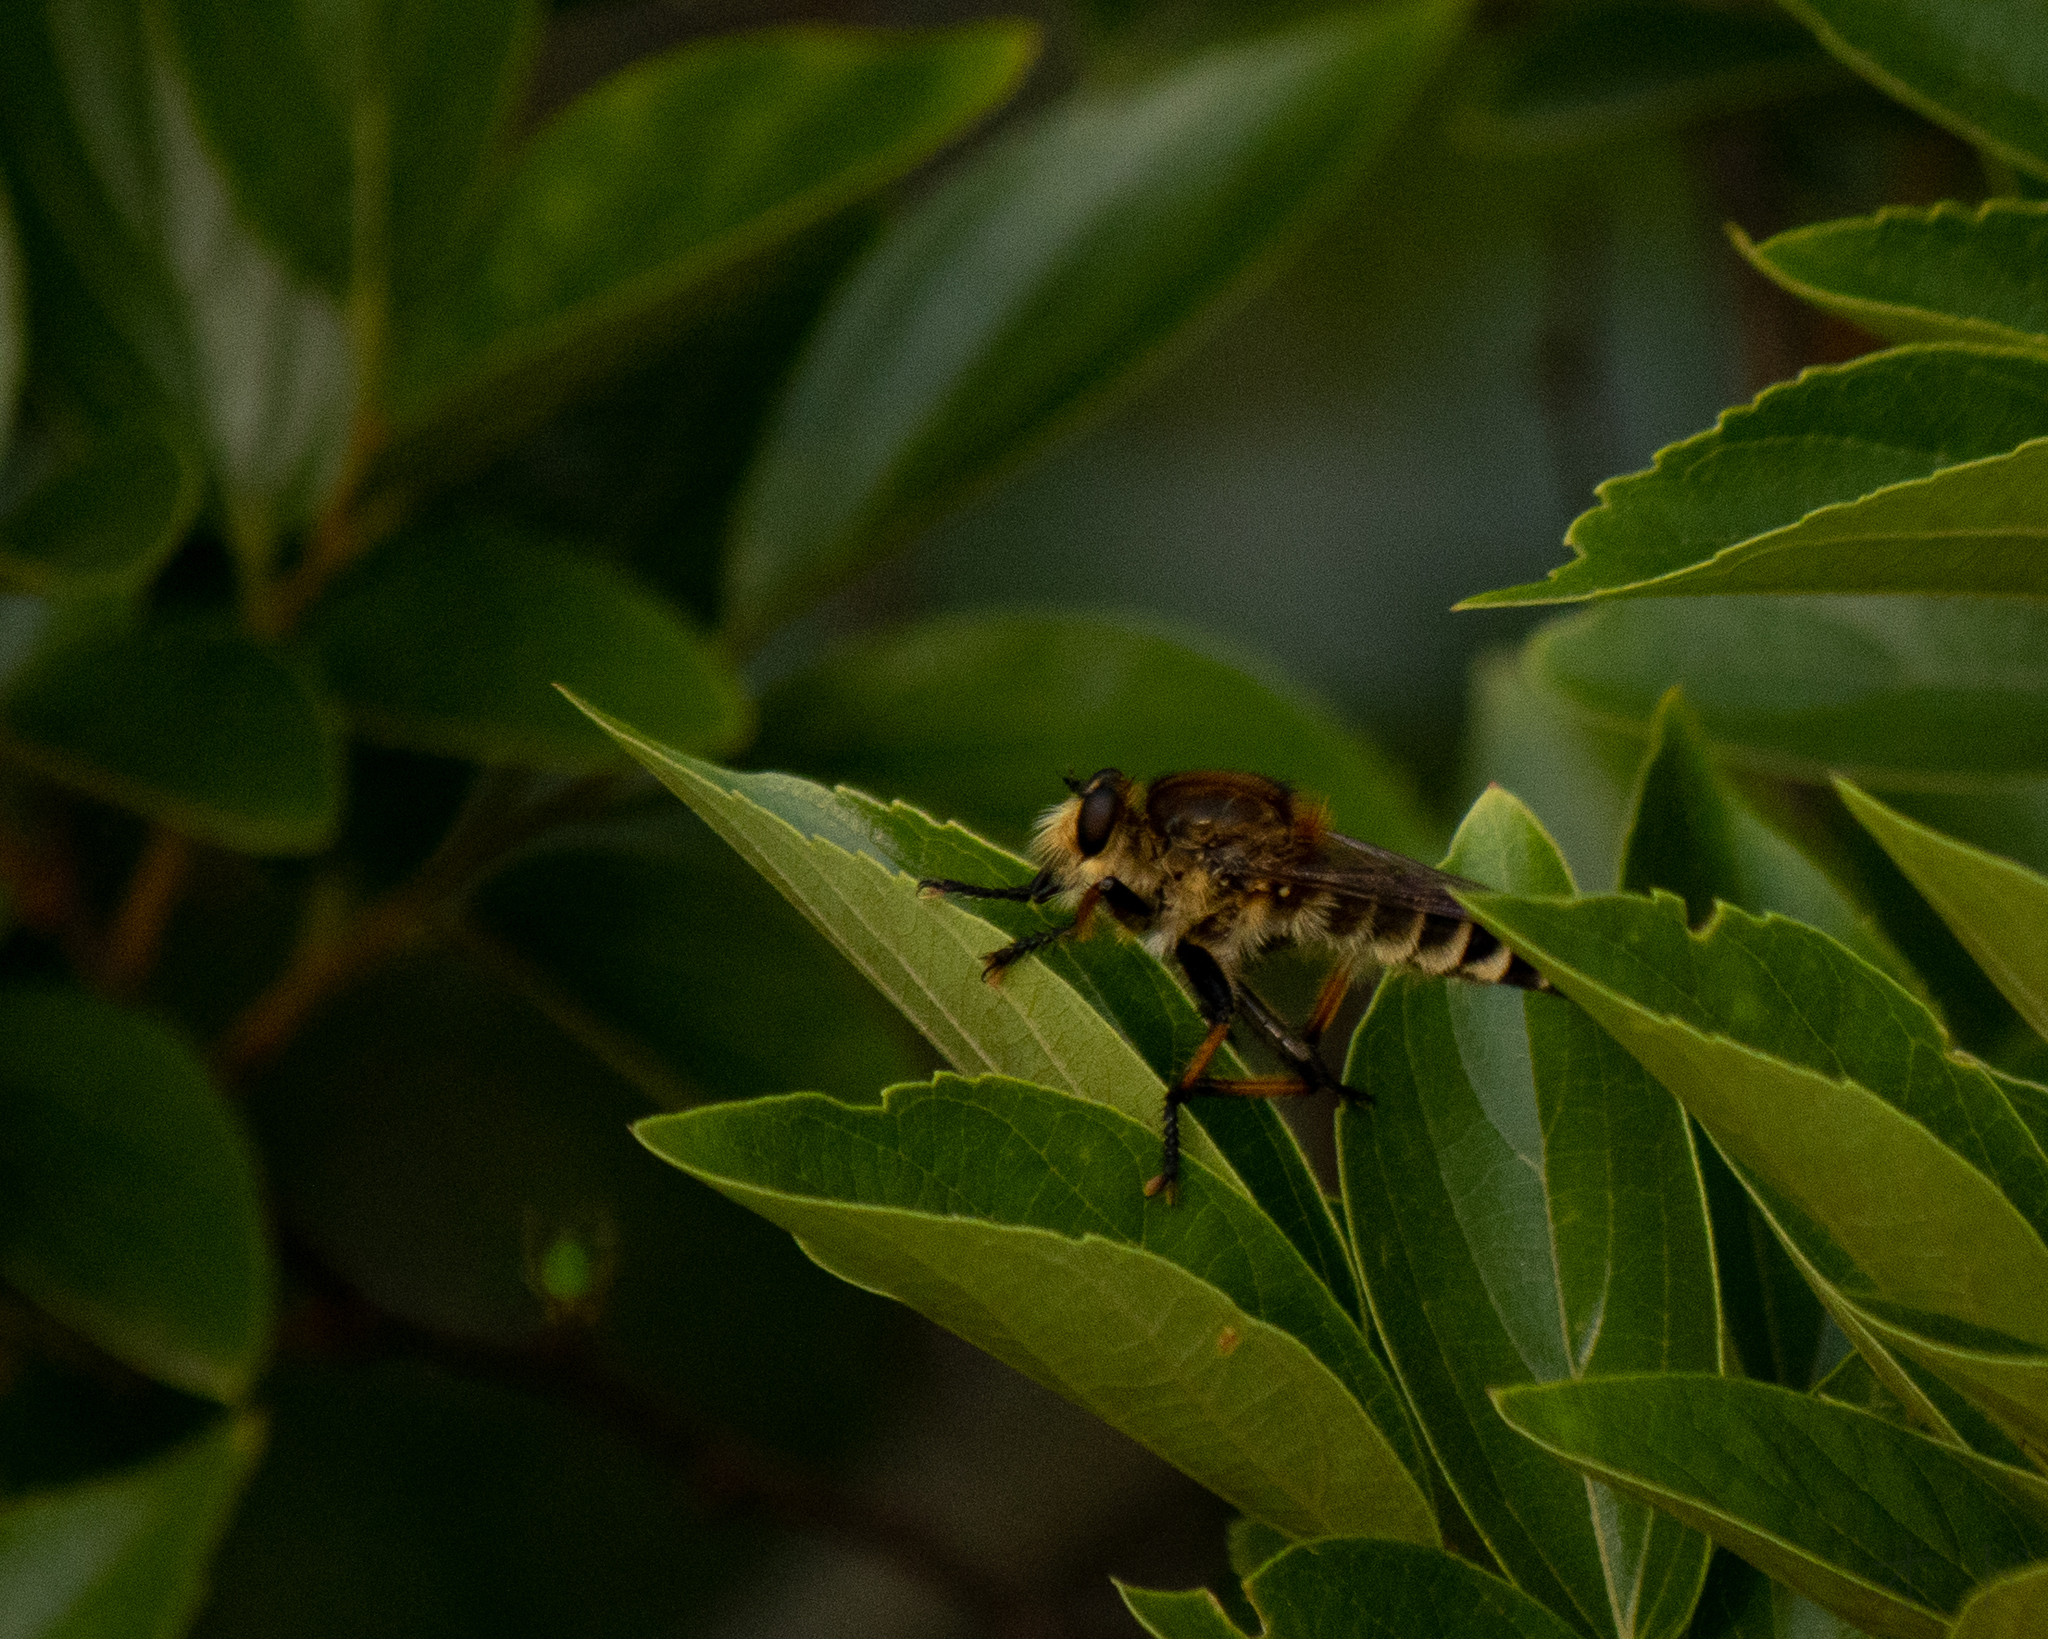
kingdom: Animalia
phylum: Arthropoda
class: Insecta
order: Diptera
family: Asilidae
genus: Promachus
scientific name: Promachus yesonicus
